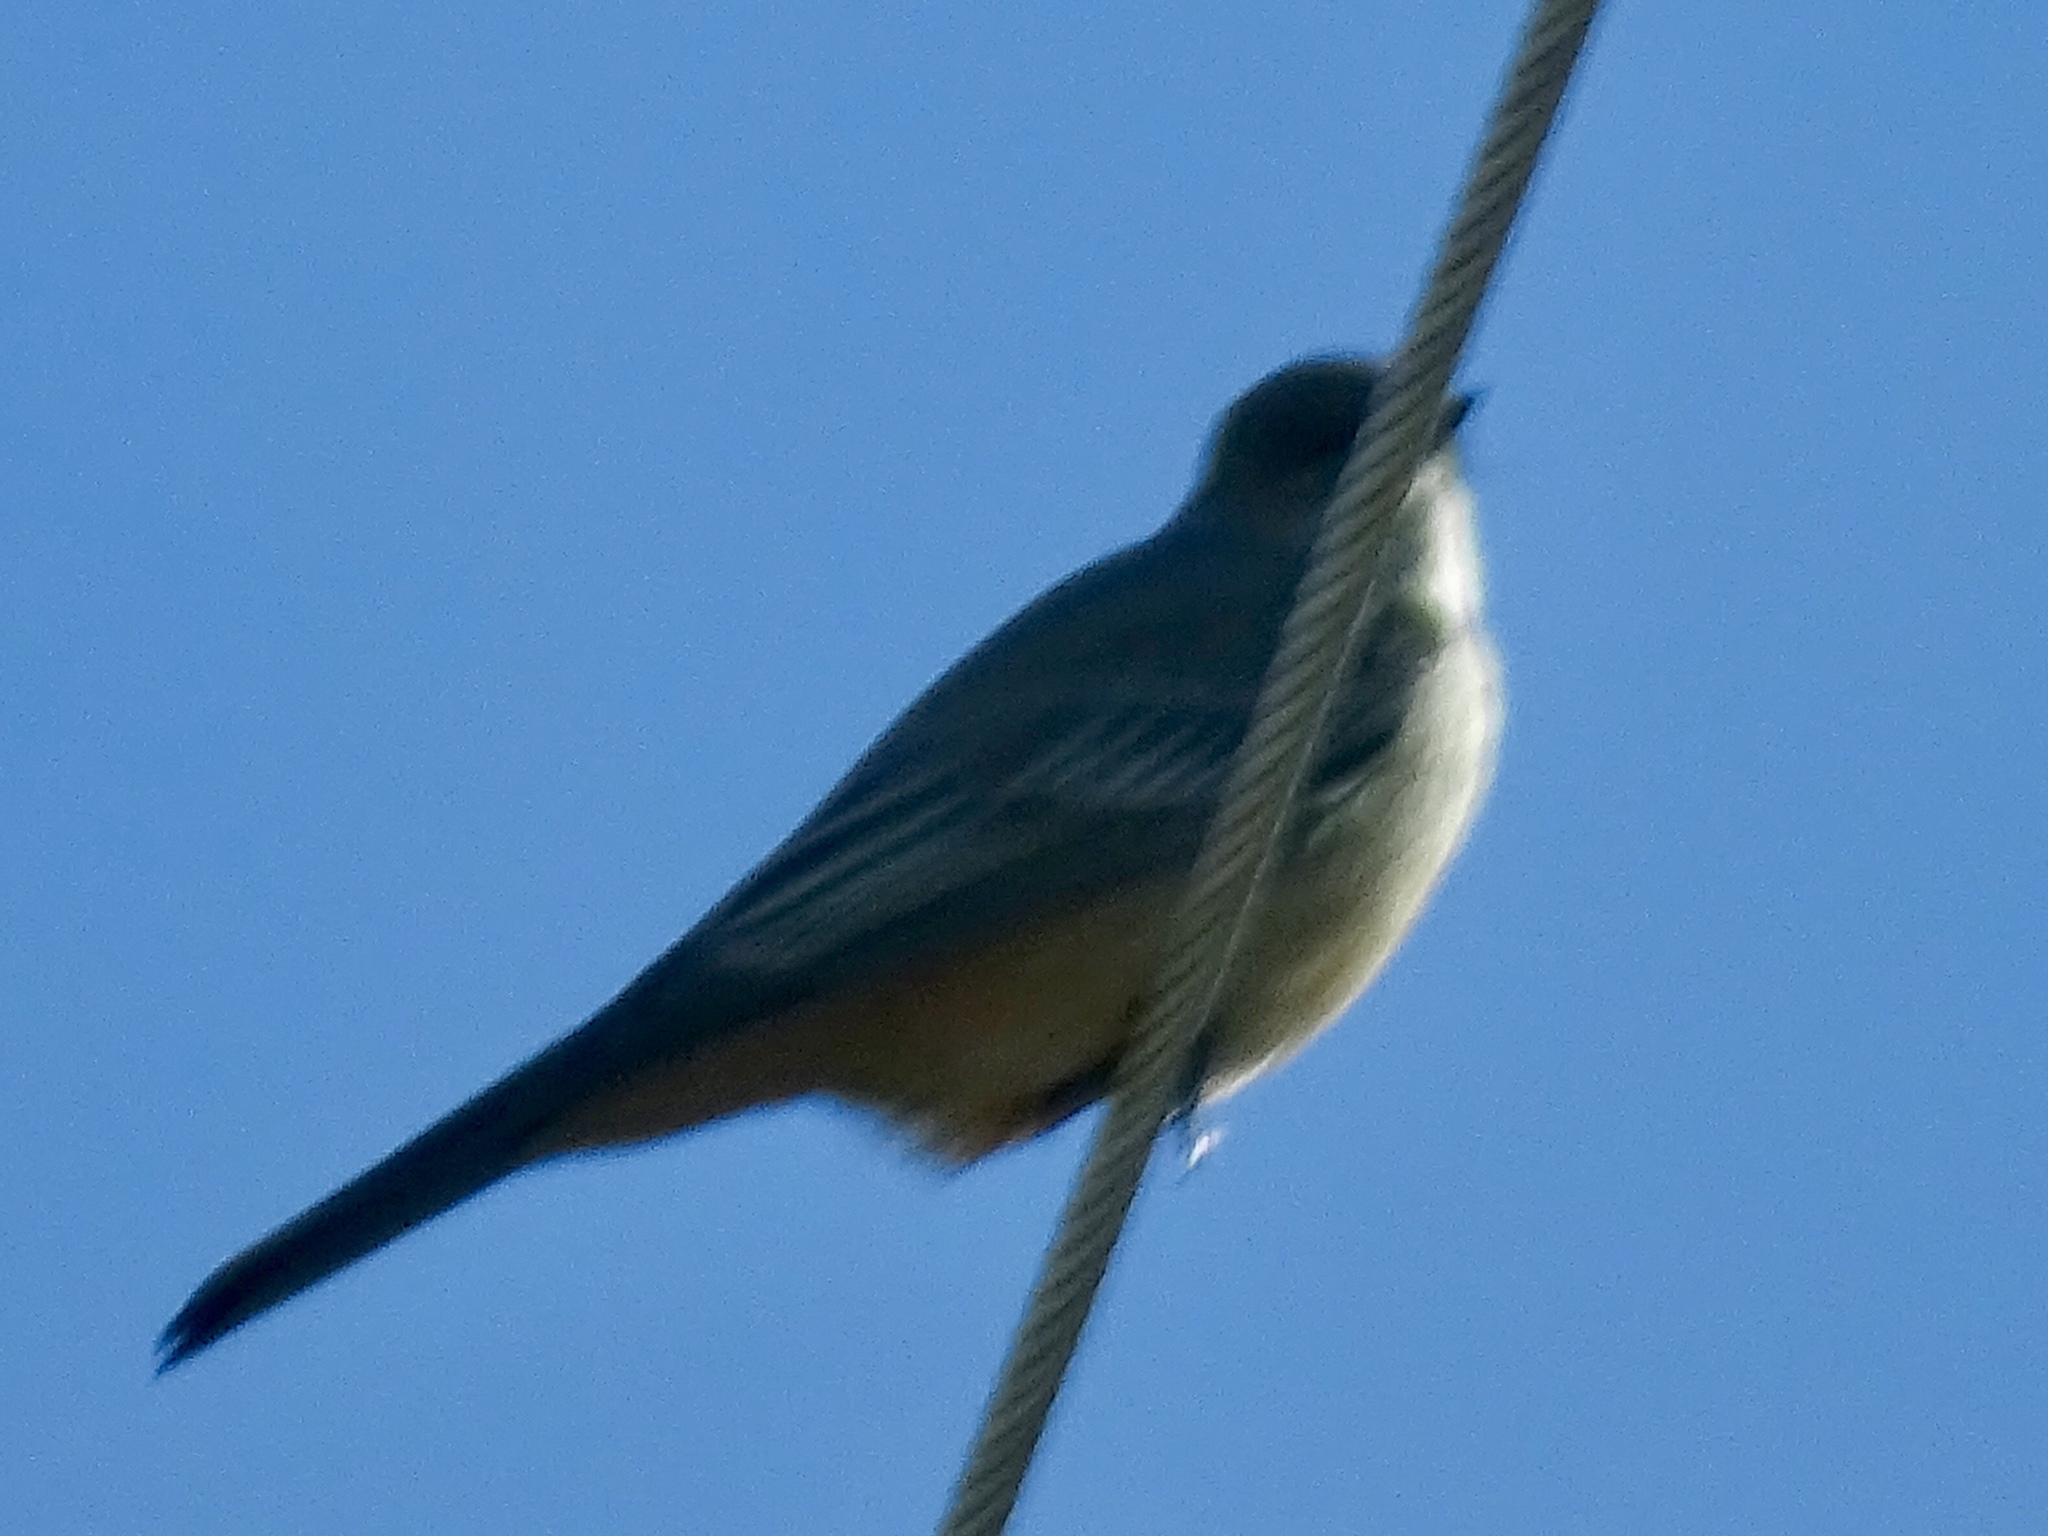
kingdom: Animalia
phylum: Chordata
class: Aves
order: Passeriformes
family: Tyrannidae
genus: Sayornis
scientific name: Sayornis saya
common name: Say's phoebe
